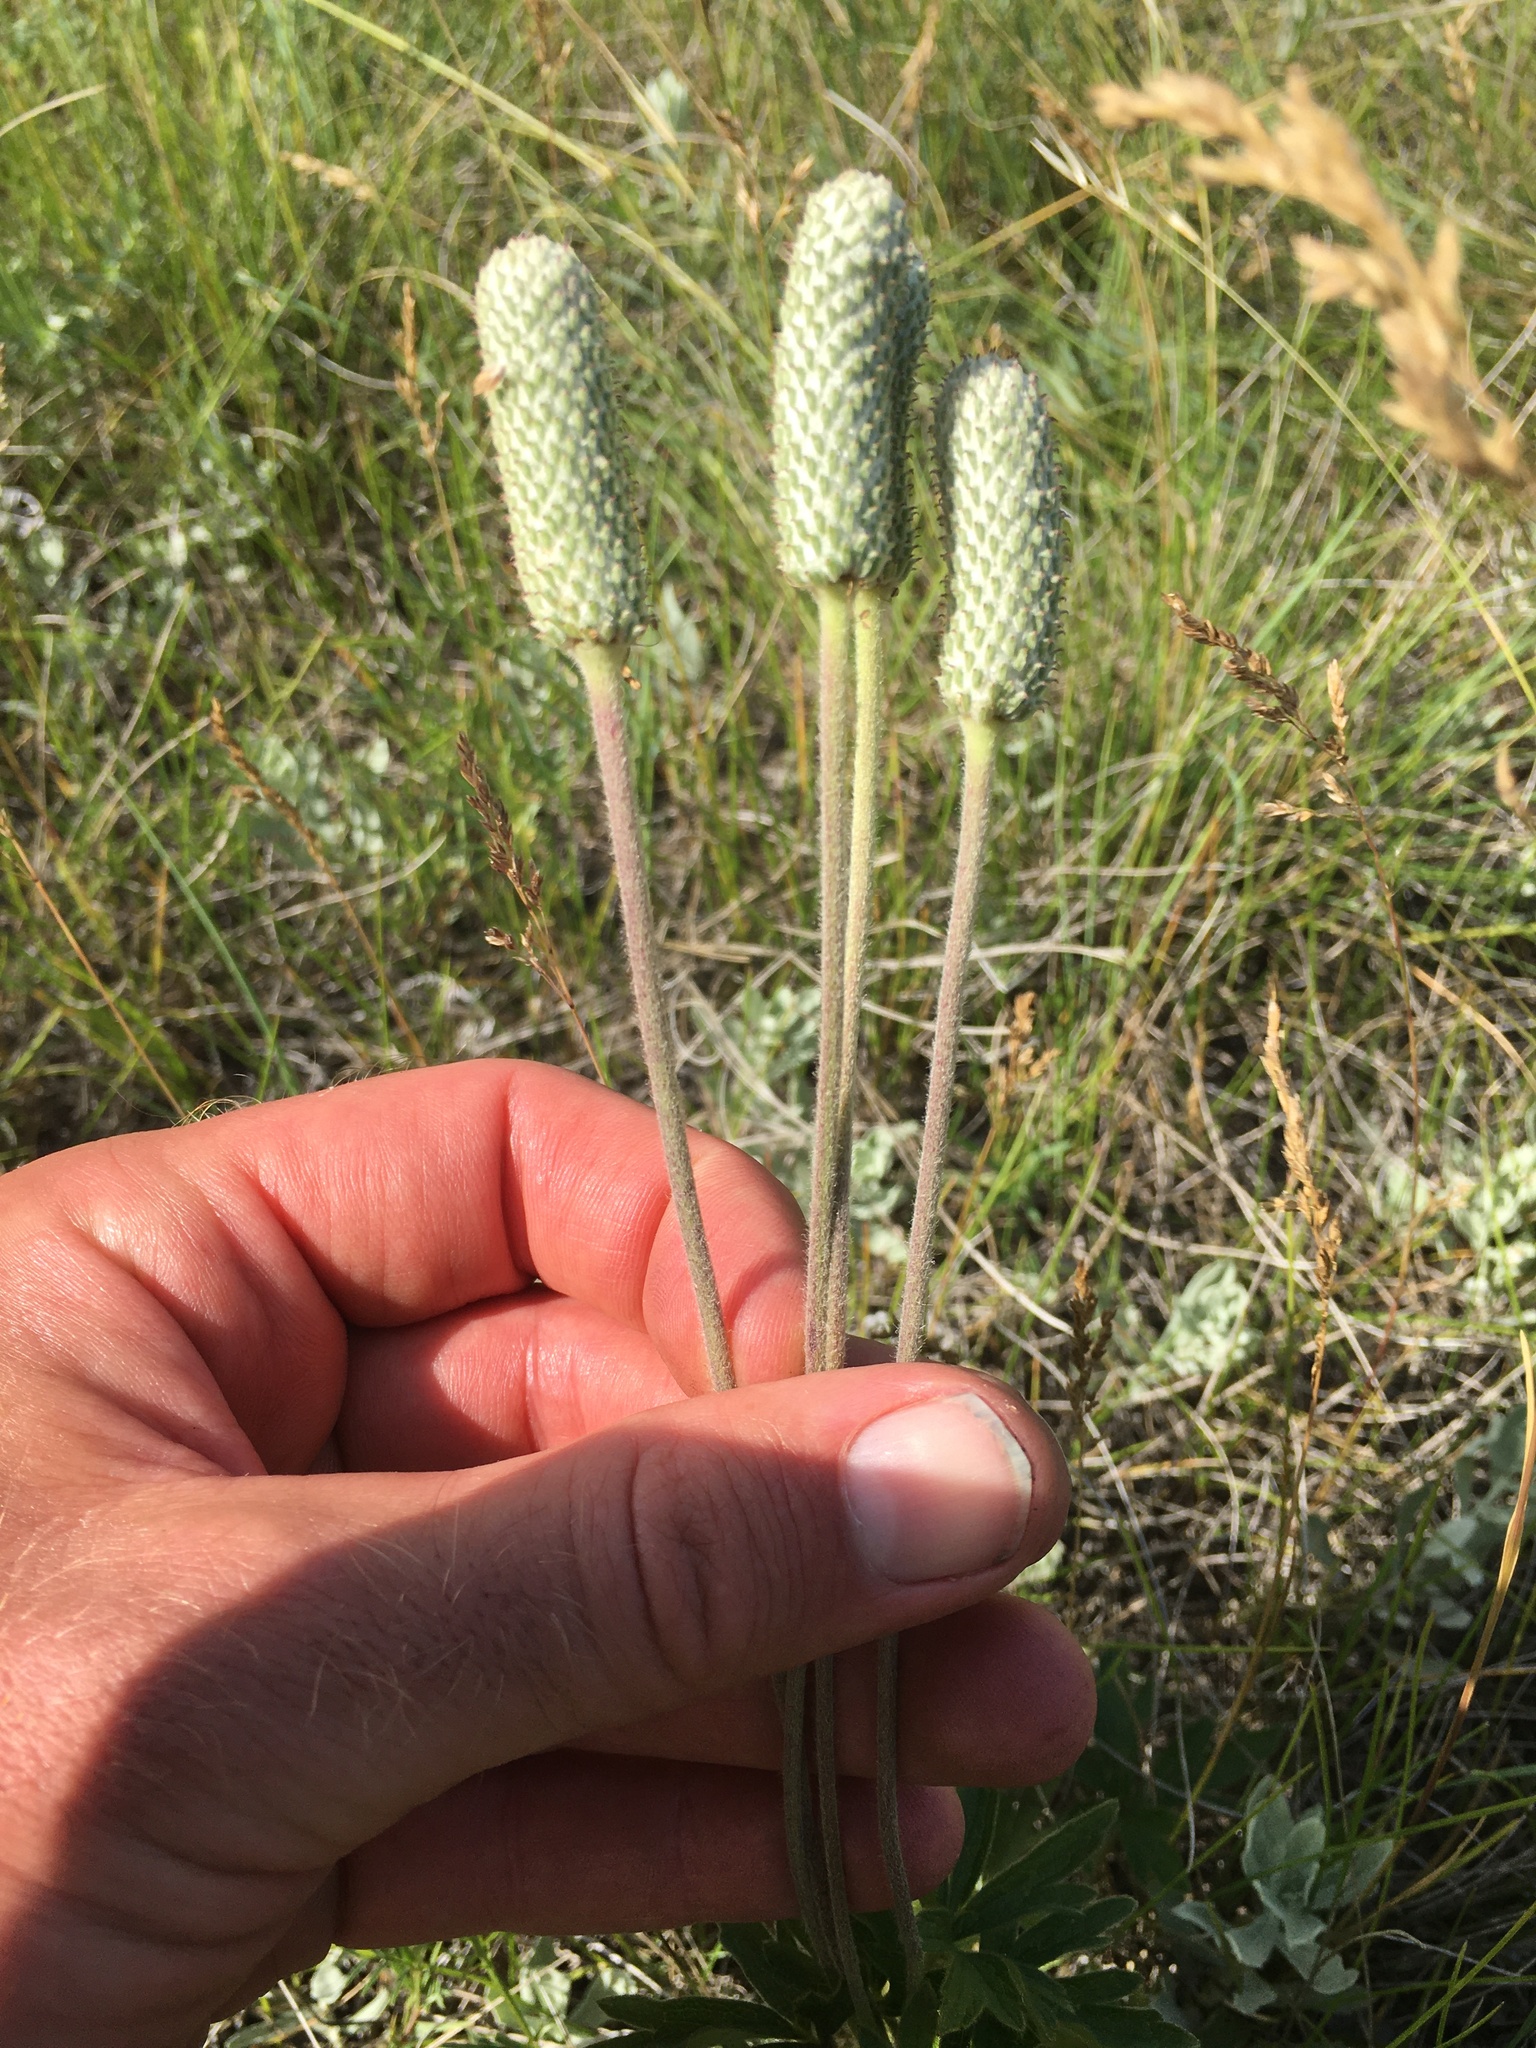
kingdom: Plantae
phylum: Tracheophyta
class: Magnoliopsida
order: Ranunculales
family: Ranunculaceae
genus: Anemone
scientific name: Anemone cylindrica
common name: Candle anemone
